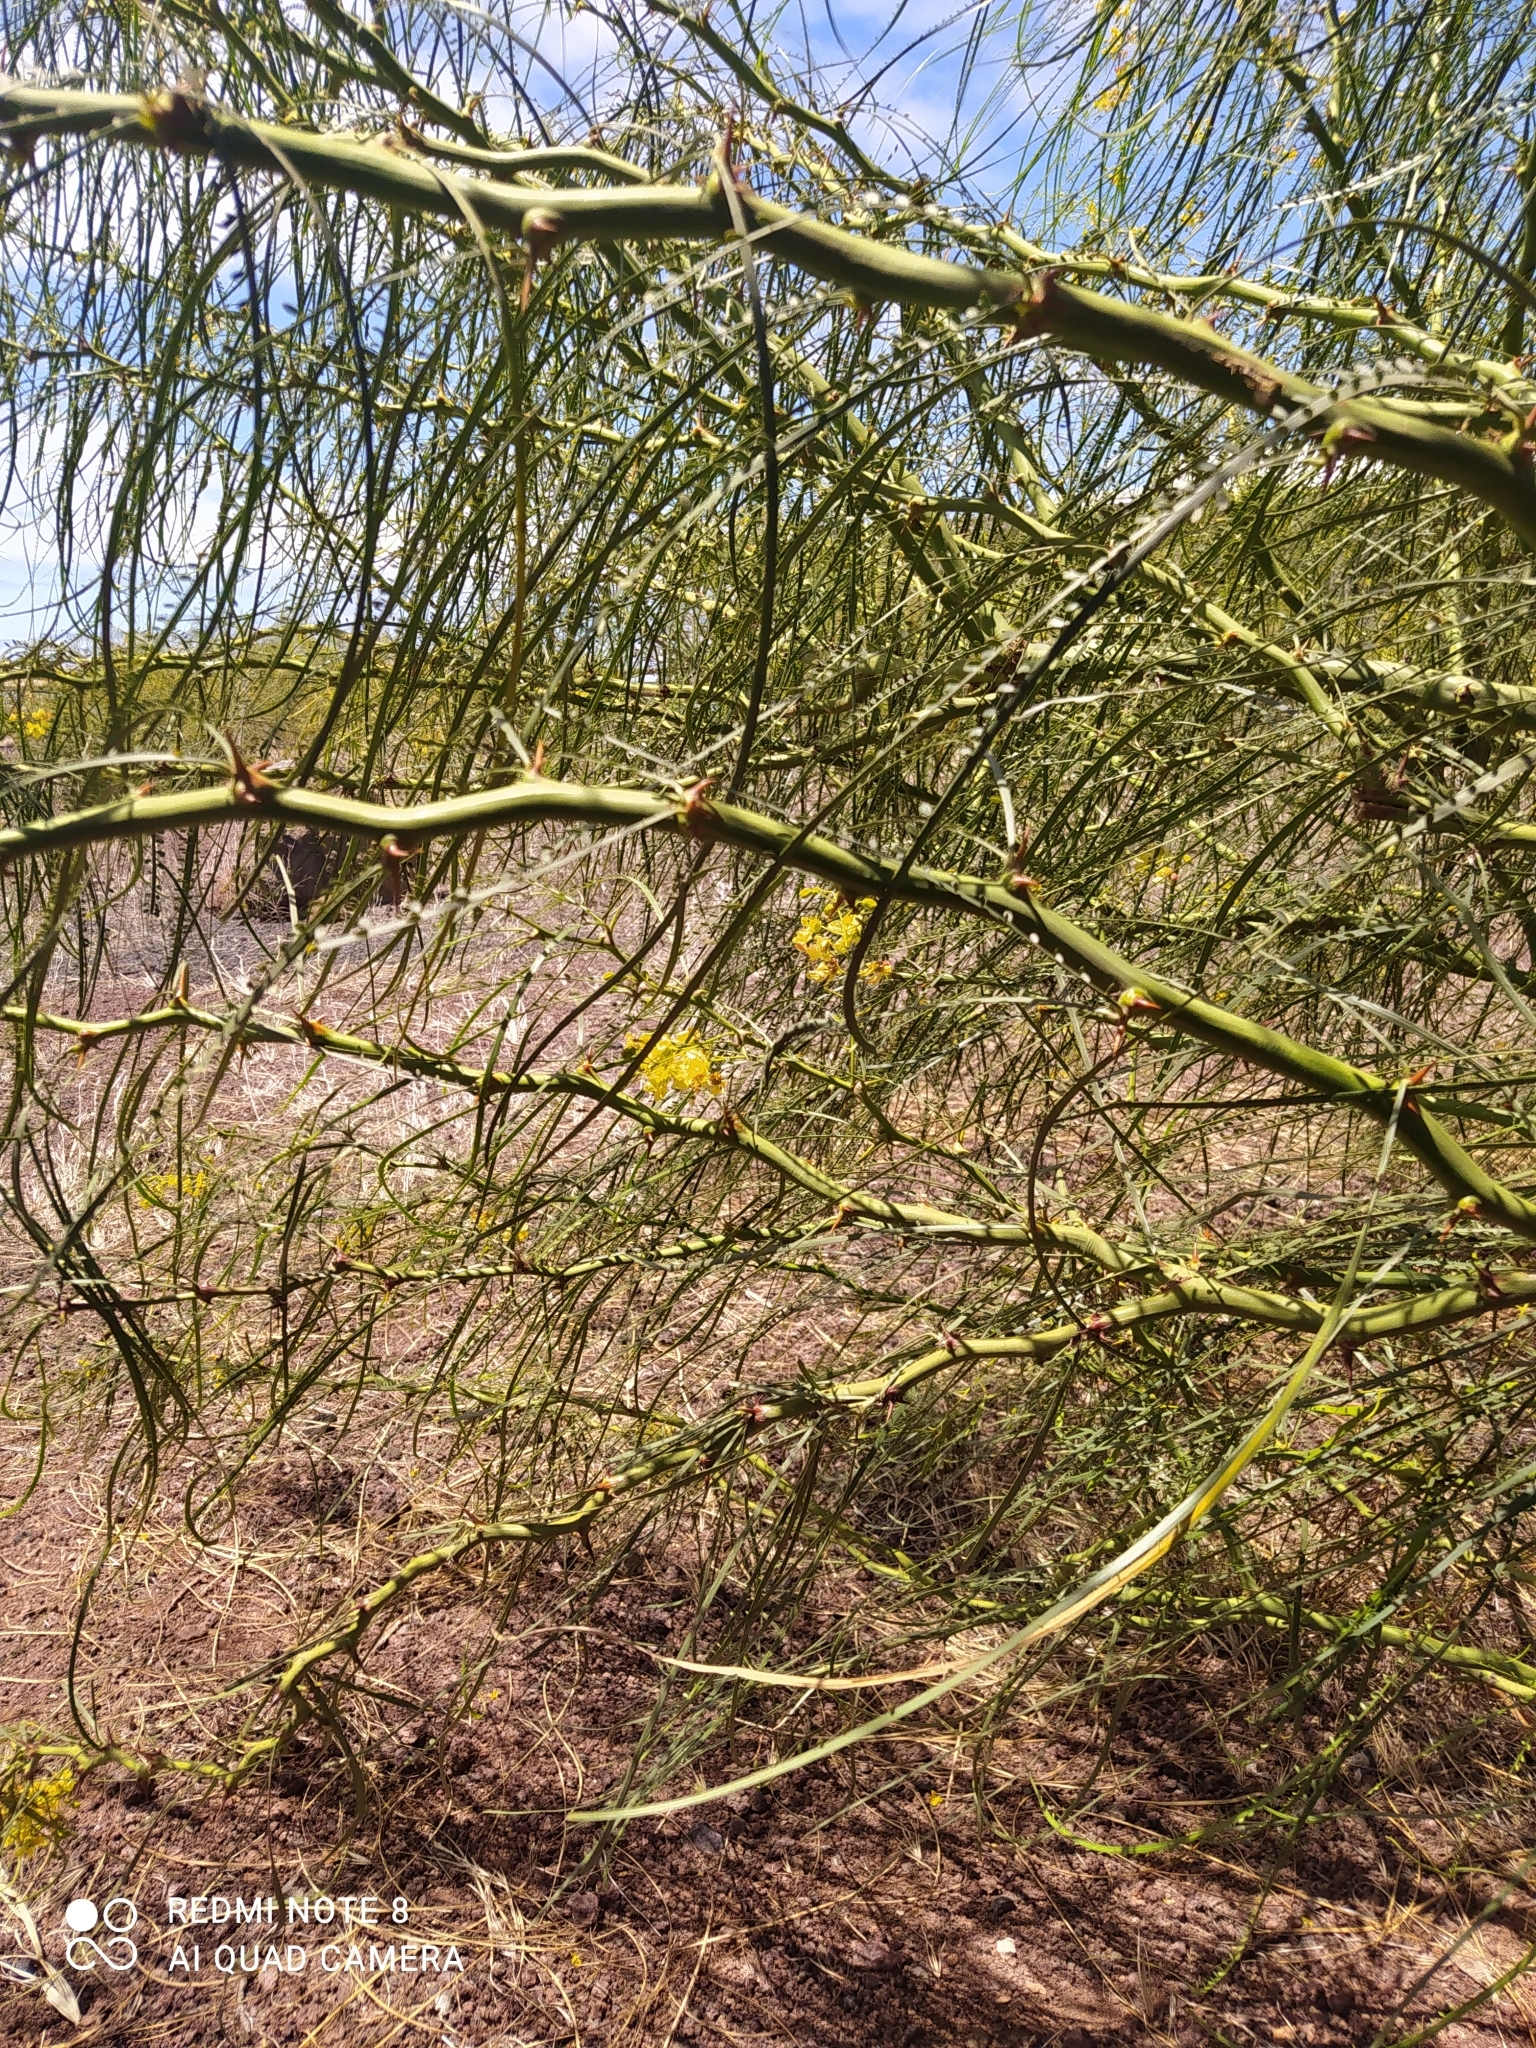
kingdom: Plantae
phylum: Tracheophyta
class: Magnoliopsida
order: Fabales
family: Fabaceae
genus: Parkinsonia
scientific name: Parkinsonia aculeata
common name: Jerusalem thorn
